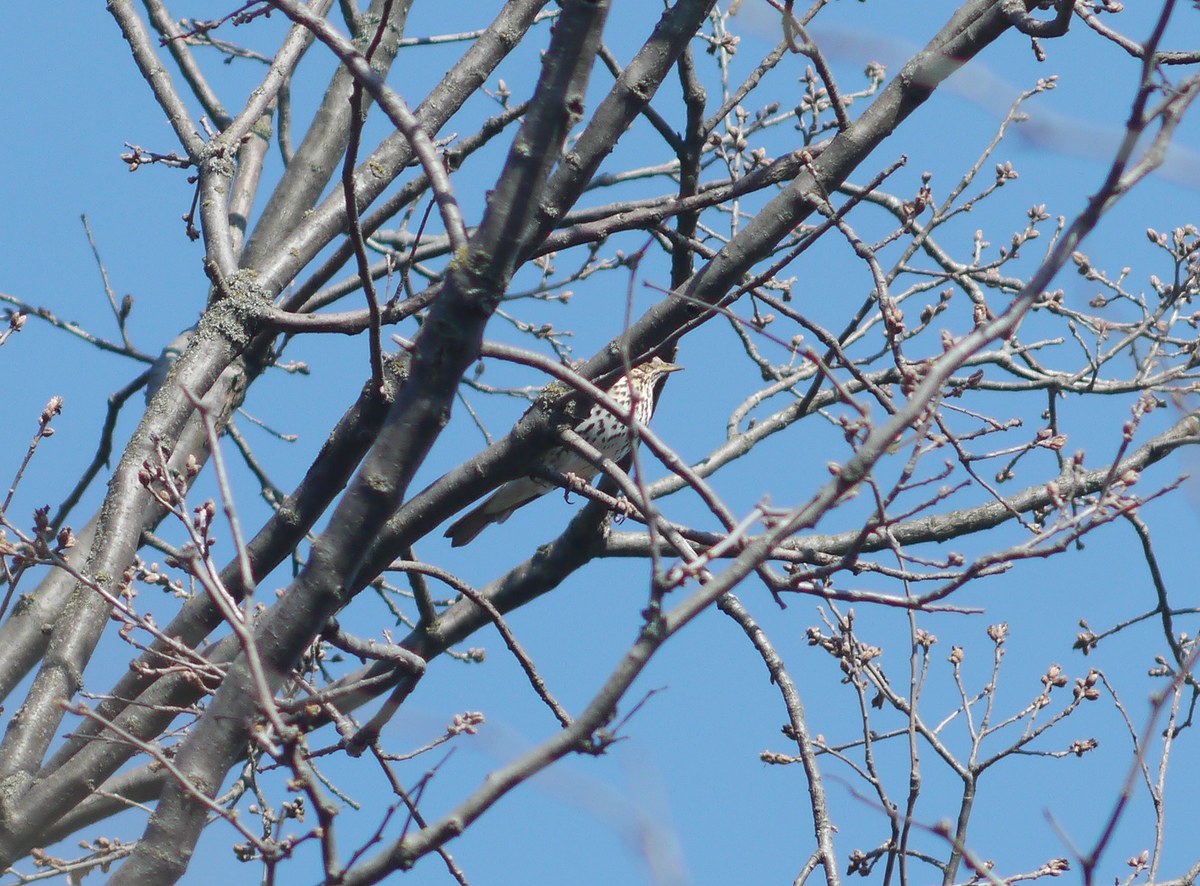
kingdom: Animalia
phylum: Chordata
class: Aves
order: Passeriformes
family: Turdidae
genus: Turdus
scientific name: Turdus philomelos
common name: Song thrush
